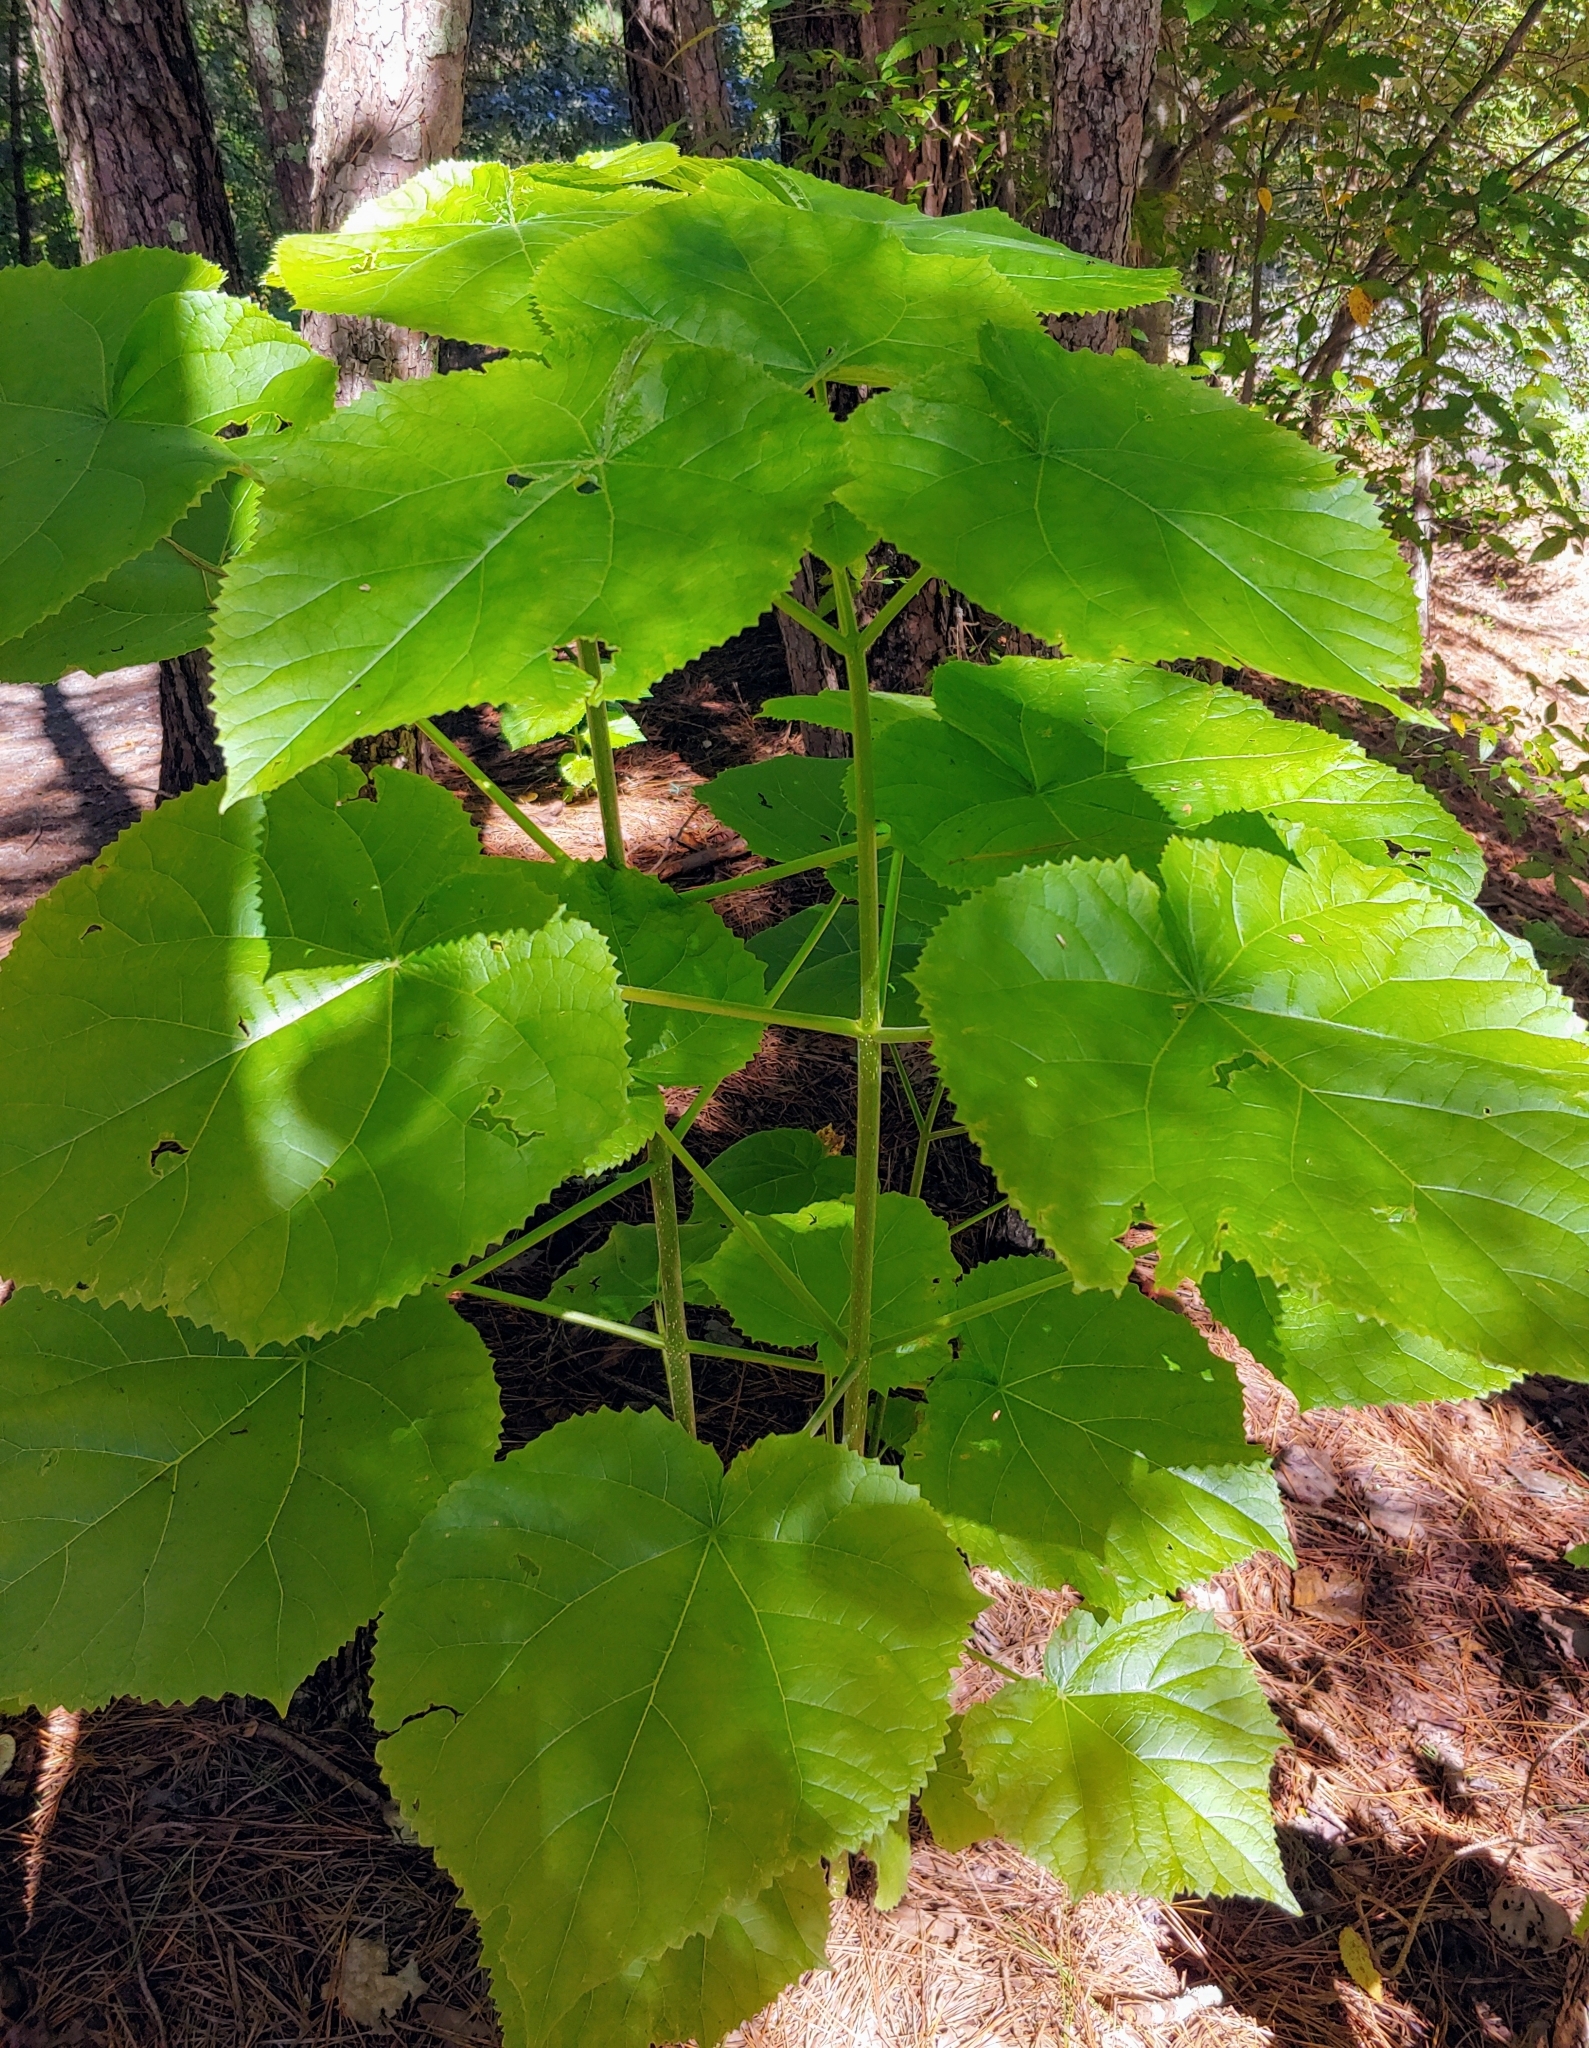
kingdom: Plantae
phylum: Tracheophyta
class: Magnoliopsida
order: Lamiales
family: Paulowniaceae
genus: Paulownia
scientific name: Paulownia tomentosa
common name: Foxglove-tree
